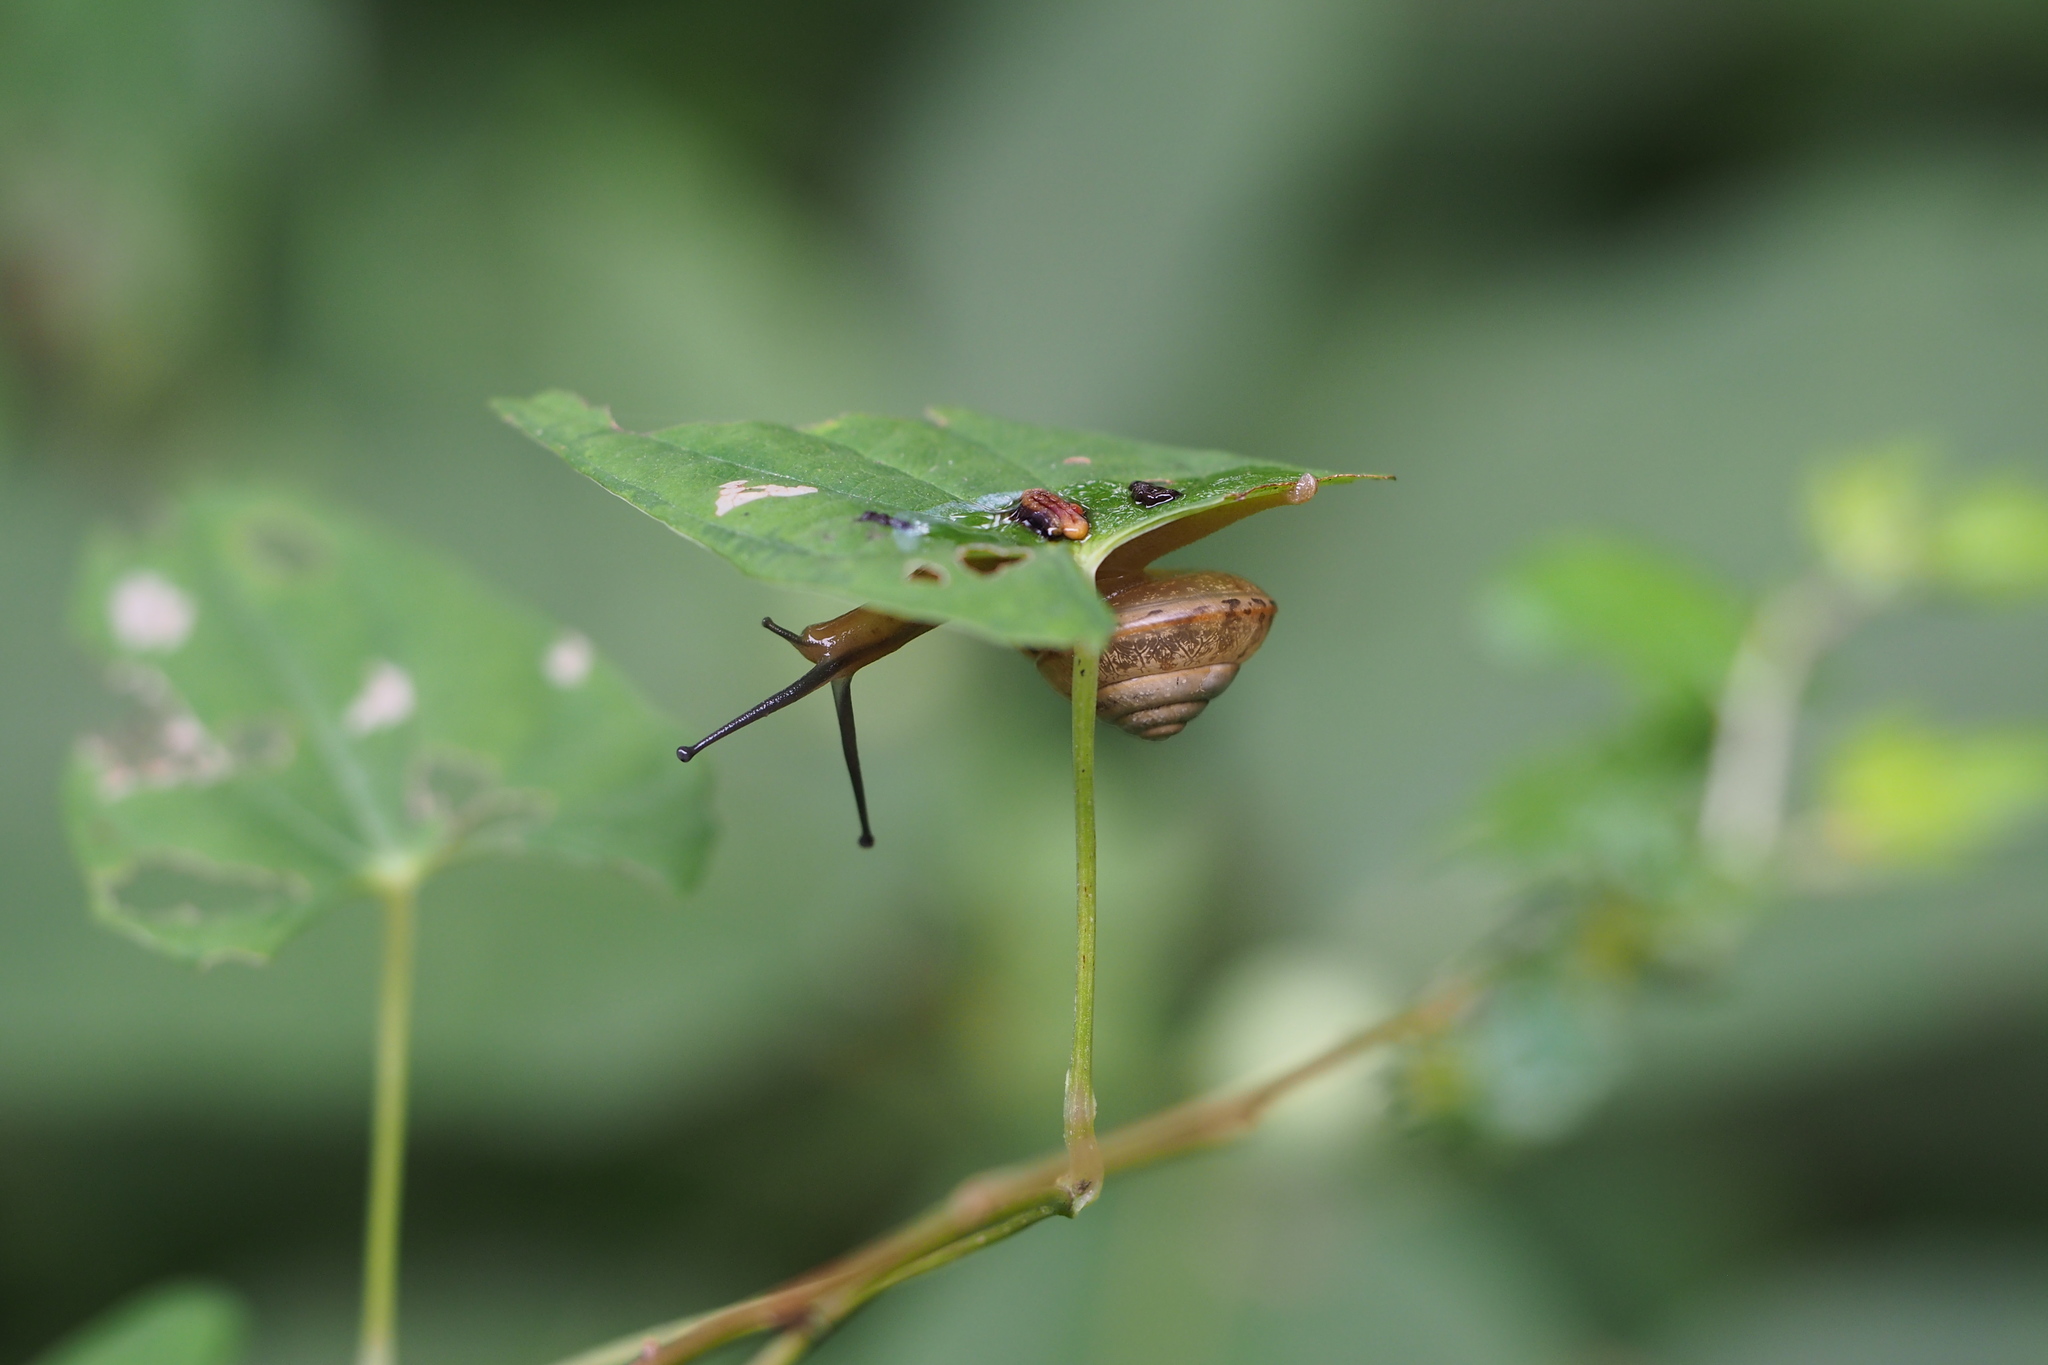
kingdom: Animalia
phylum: Mollusca
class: Gastropoda
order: Stylommatophora
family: Camaenidae
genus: Satsuma
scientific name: Satsuma japonica
